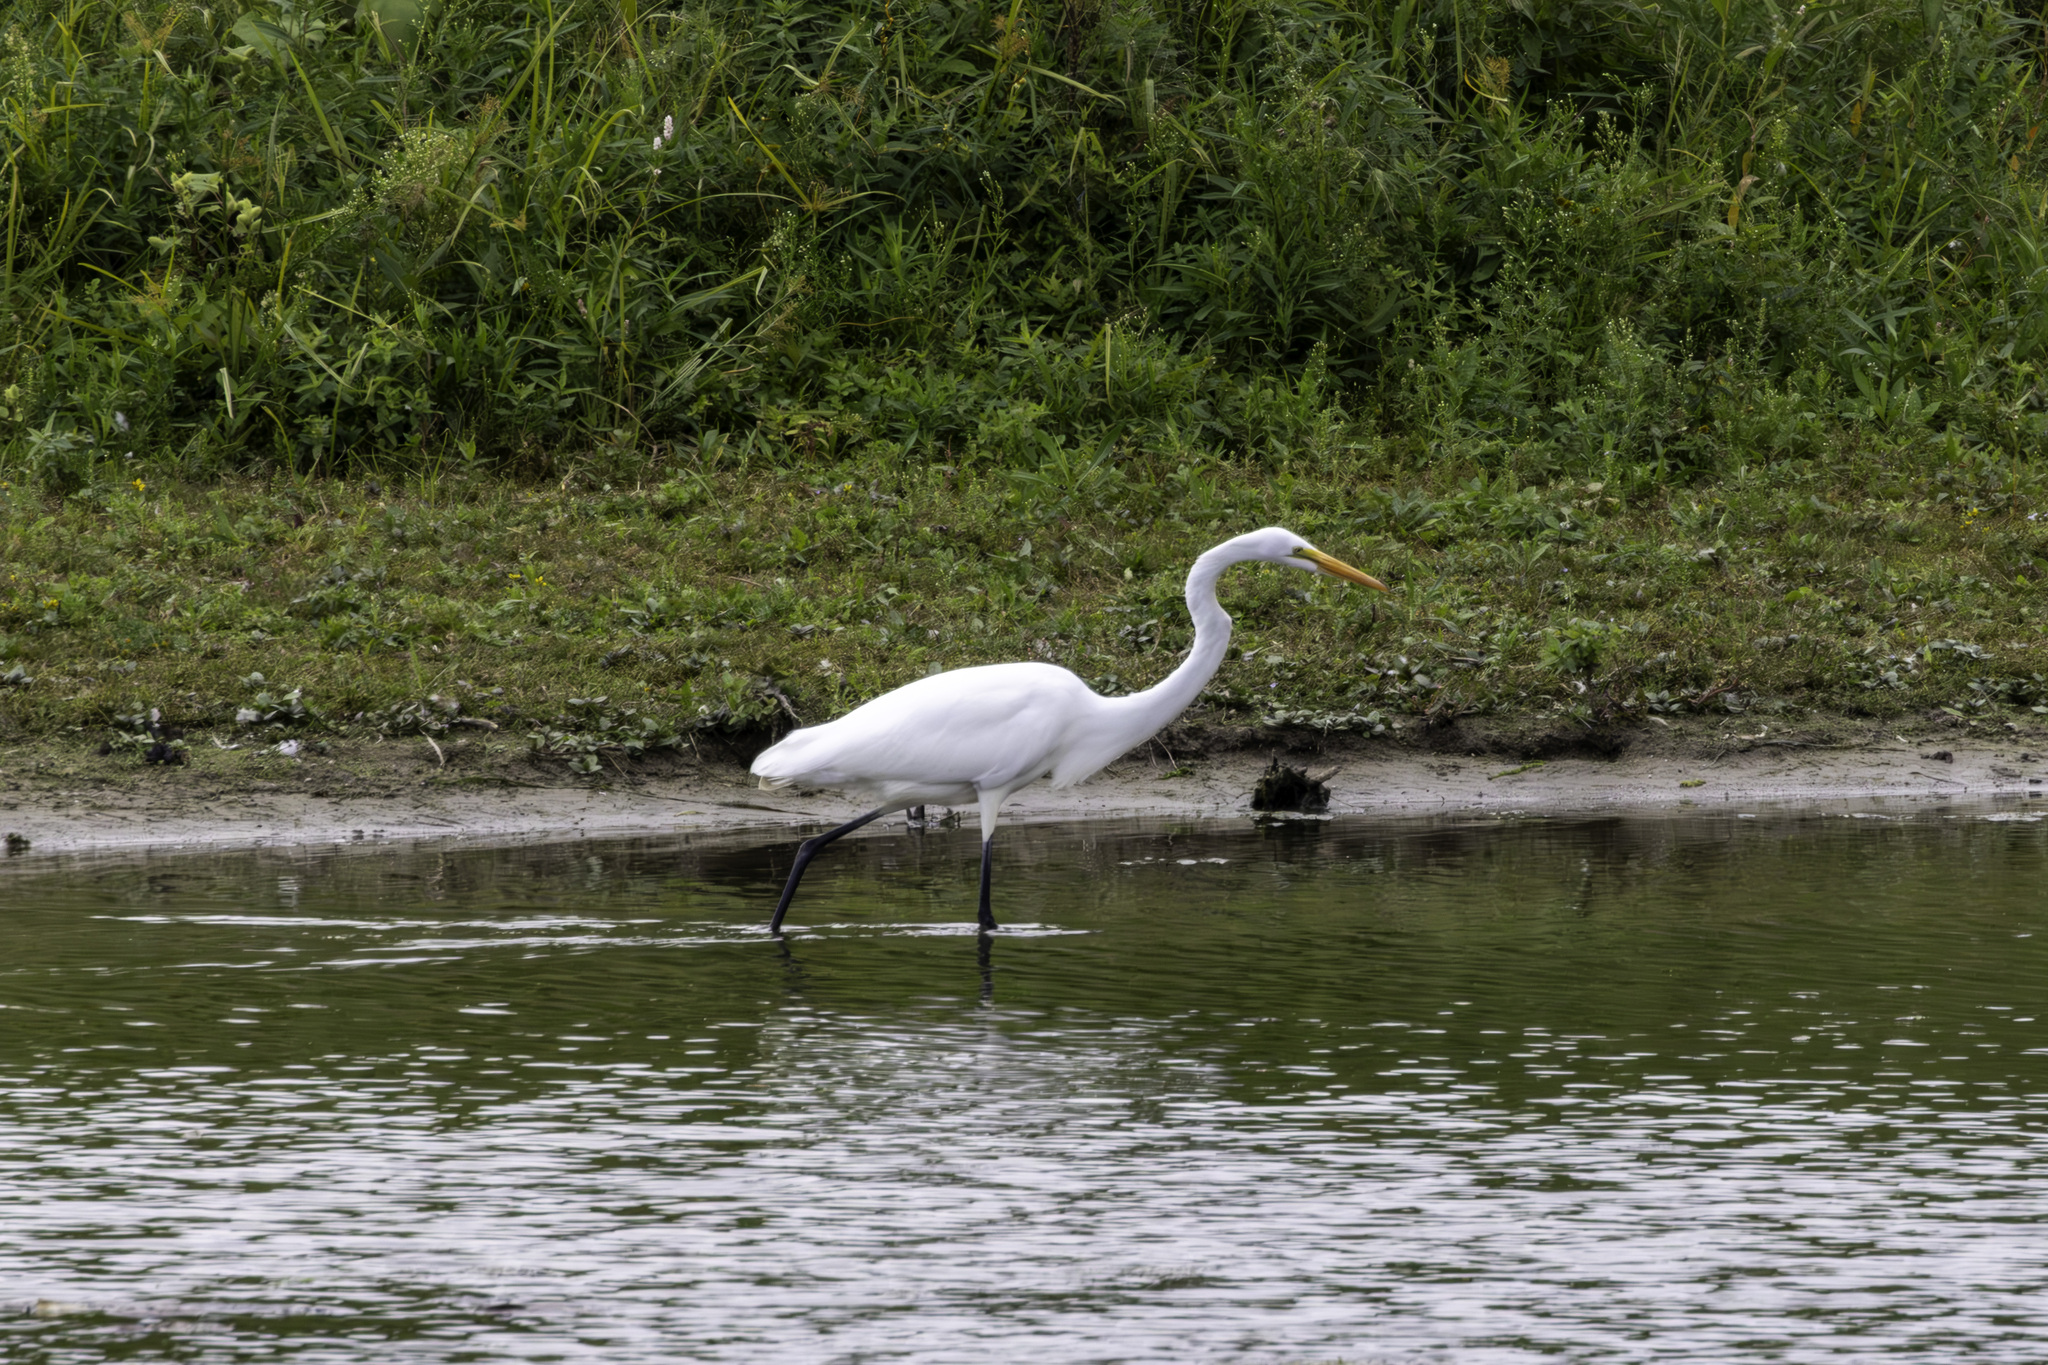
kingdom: Animalia
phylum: Chordata
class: Aves
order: Pelecaniformes
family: Ardeidae
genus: Ardea
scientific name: Ardea alba
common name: Great egret
